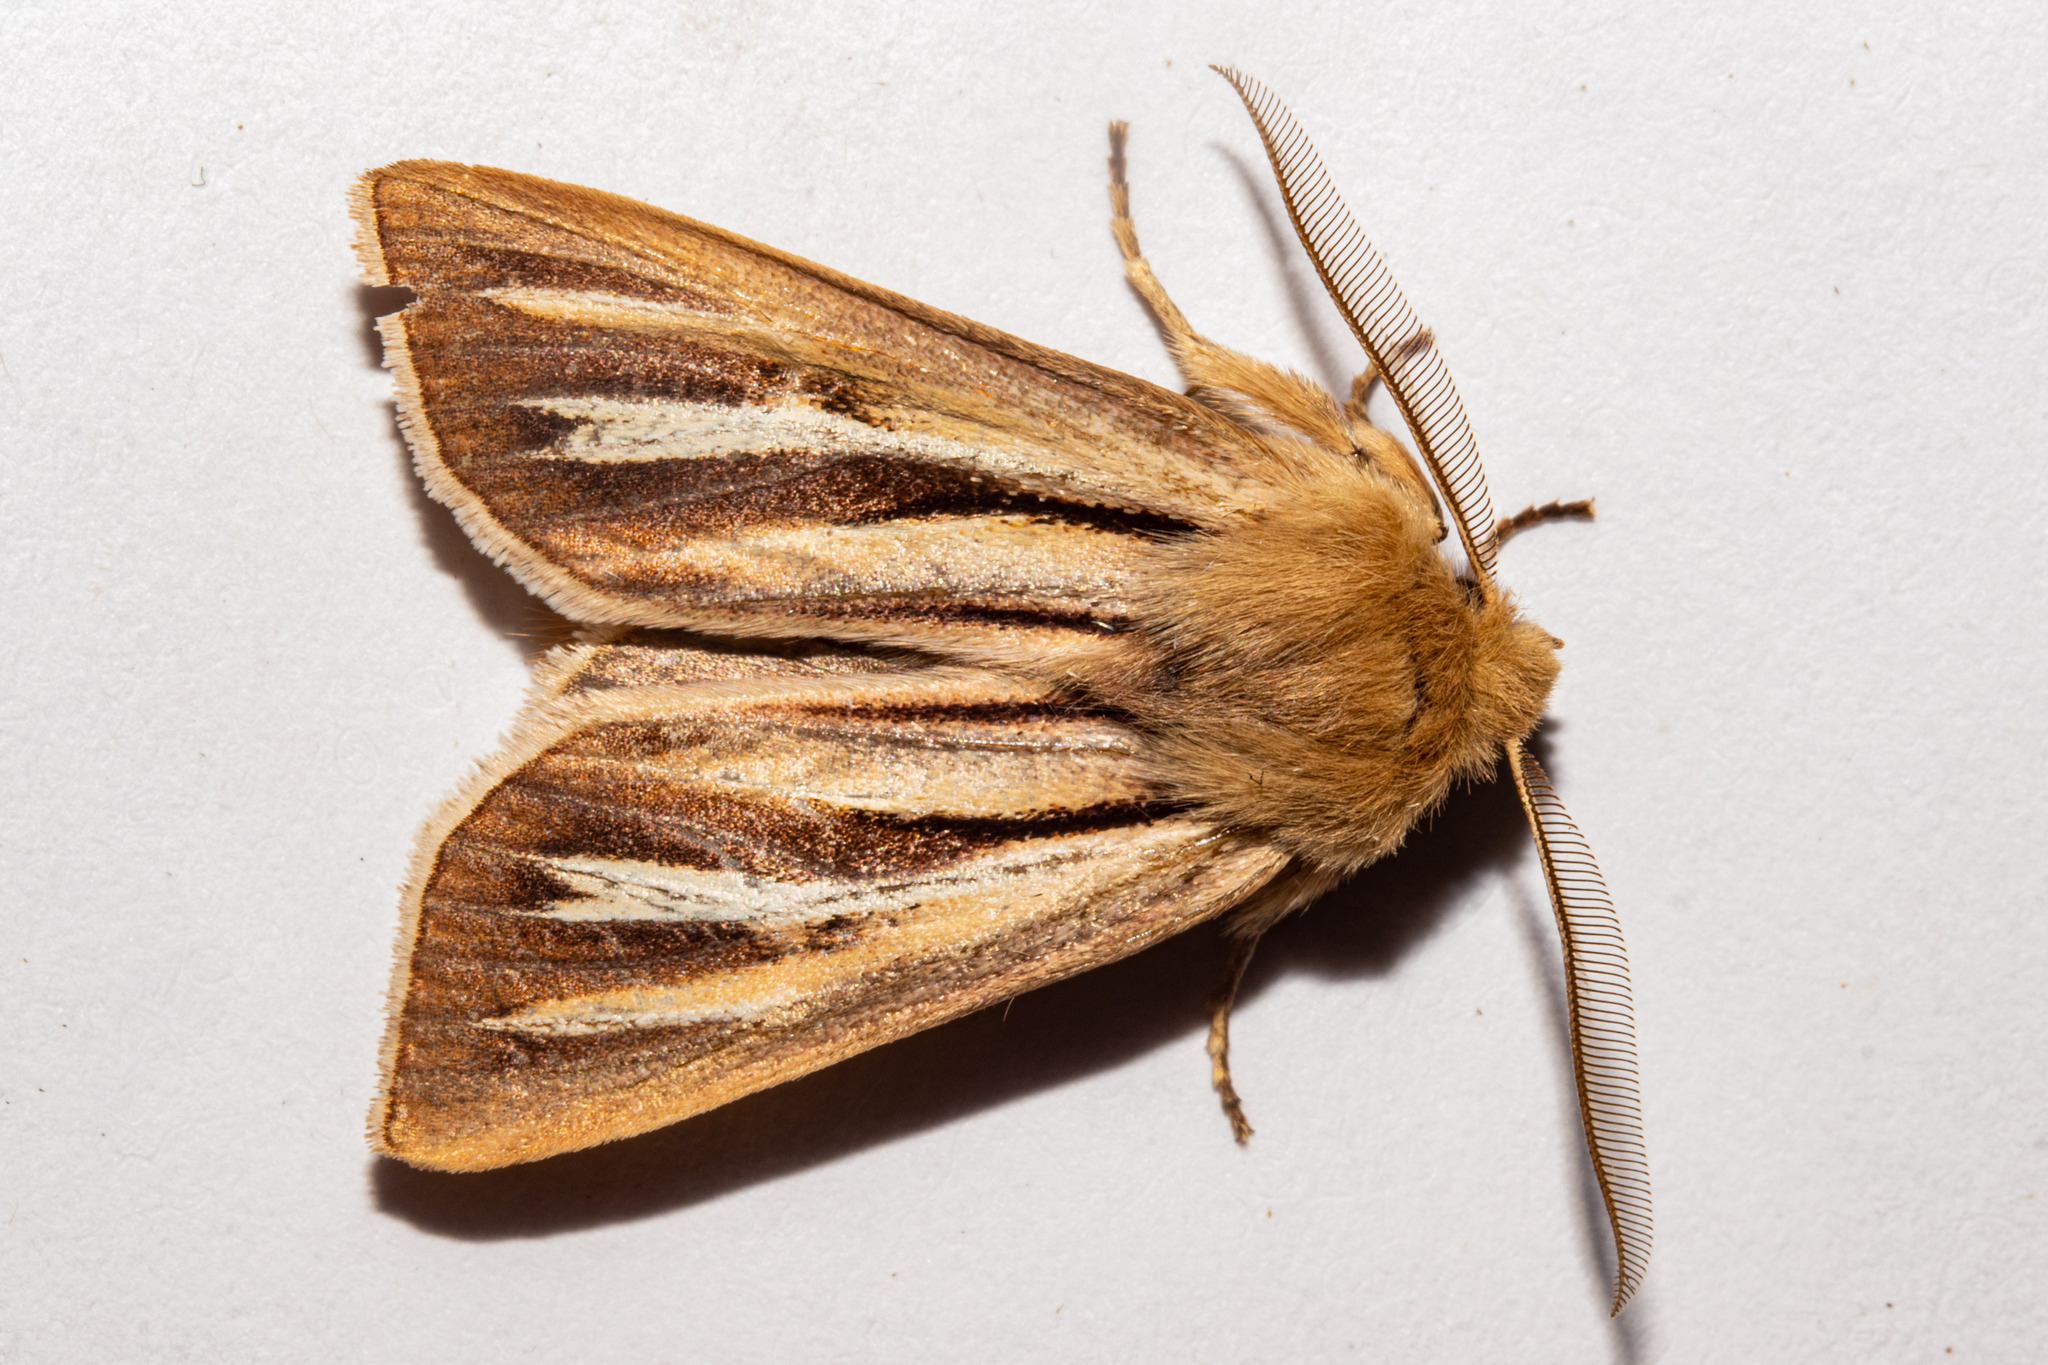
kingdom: Animalia
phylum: Arthropoda
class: Insecta
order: Lepidoptera
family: Noctuidae
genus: Ichneutica
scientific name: Ichneutica caraunias
